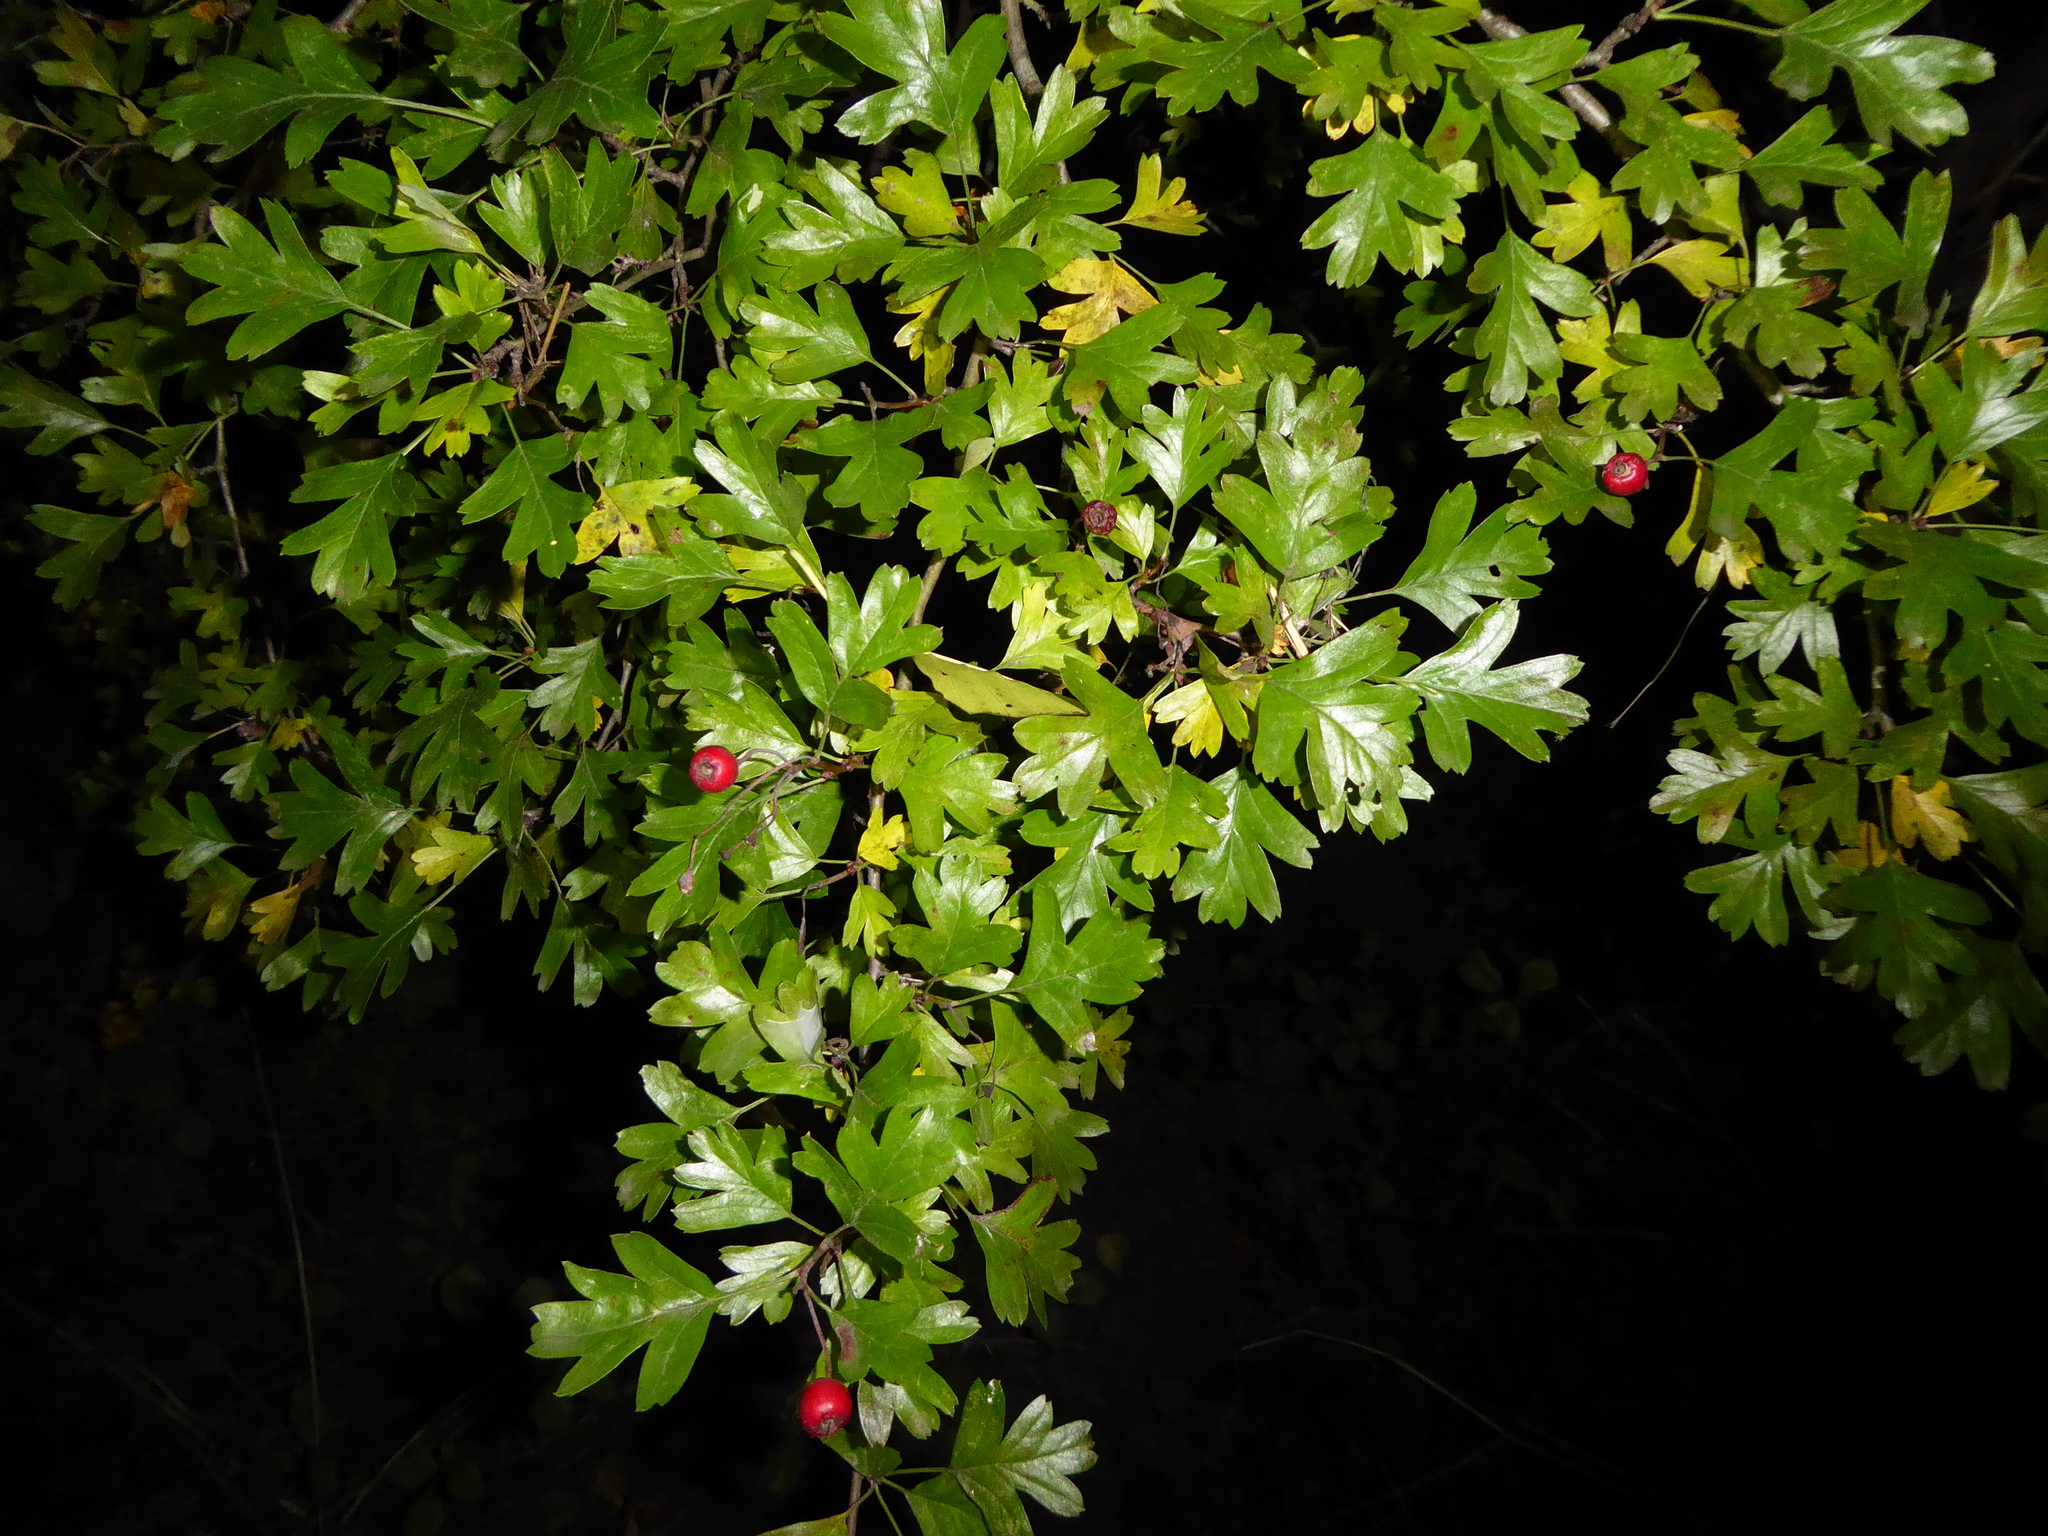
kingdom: Plantae
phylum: Tracheophyta
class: Magnoliopsida
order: Rosales
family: Rosaceae
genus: Crataegus
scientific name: Crataegus monogyna
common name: Hawthorn
